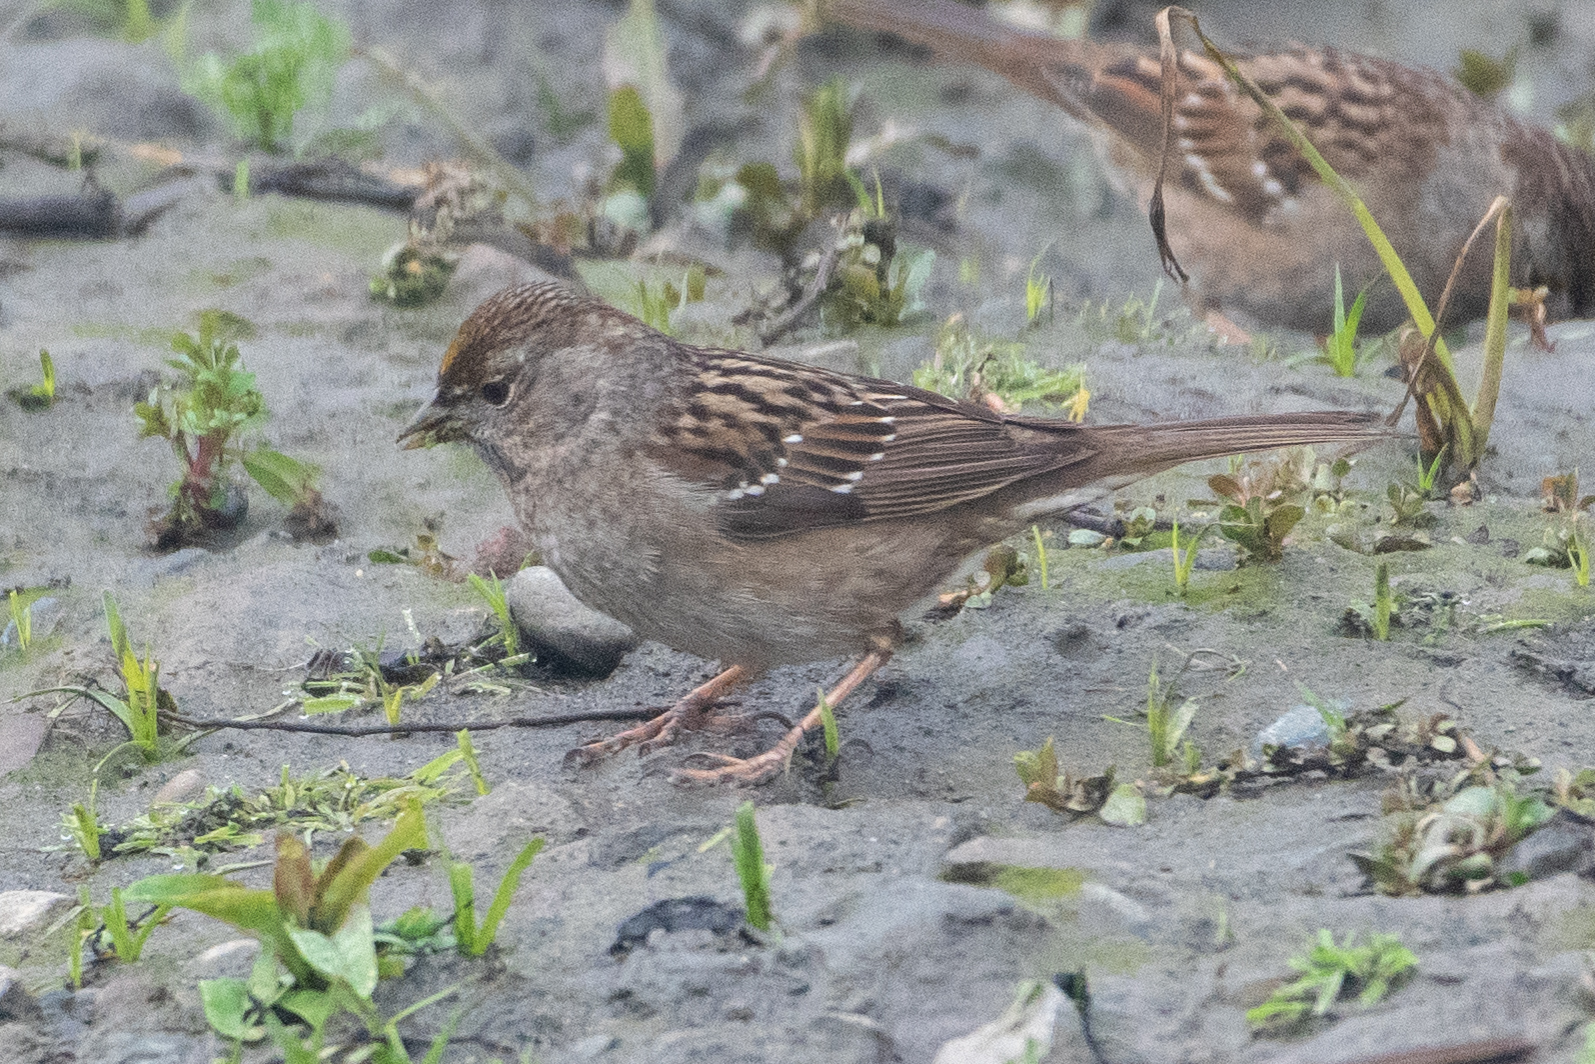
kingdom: Animalia
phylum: Chordata
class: Aves
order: Passeriformes
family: Passerellidae
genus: Zonotrichia
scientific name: Zonotrichia atricapilla
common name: Golden-crowned sparrow
